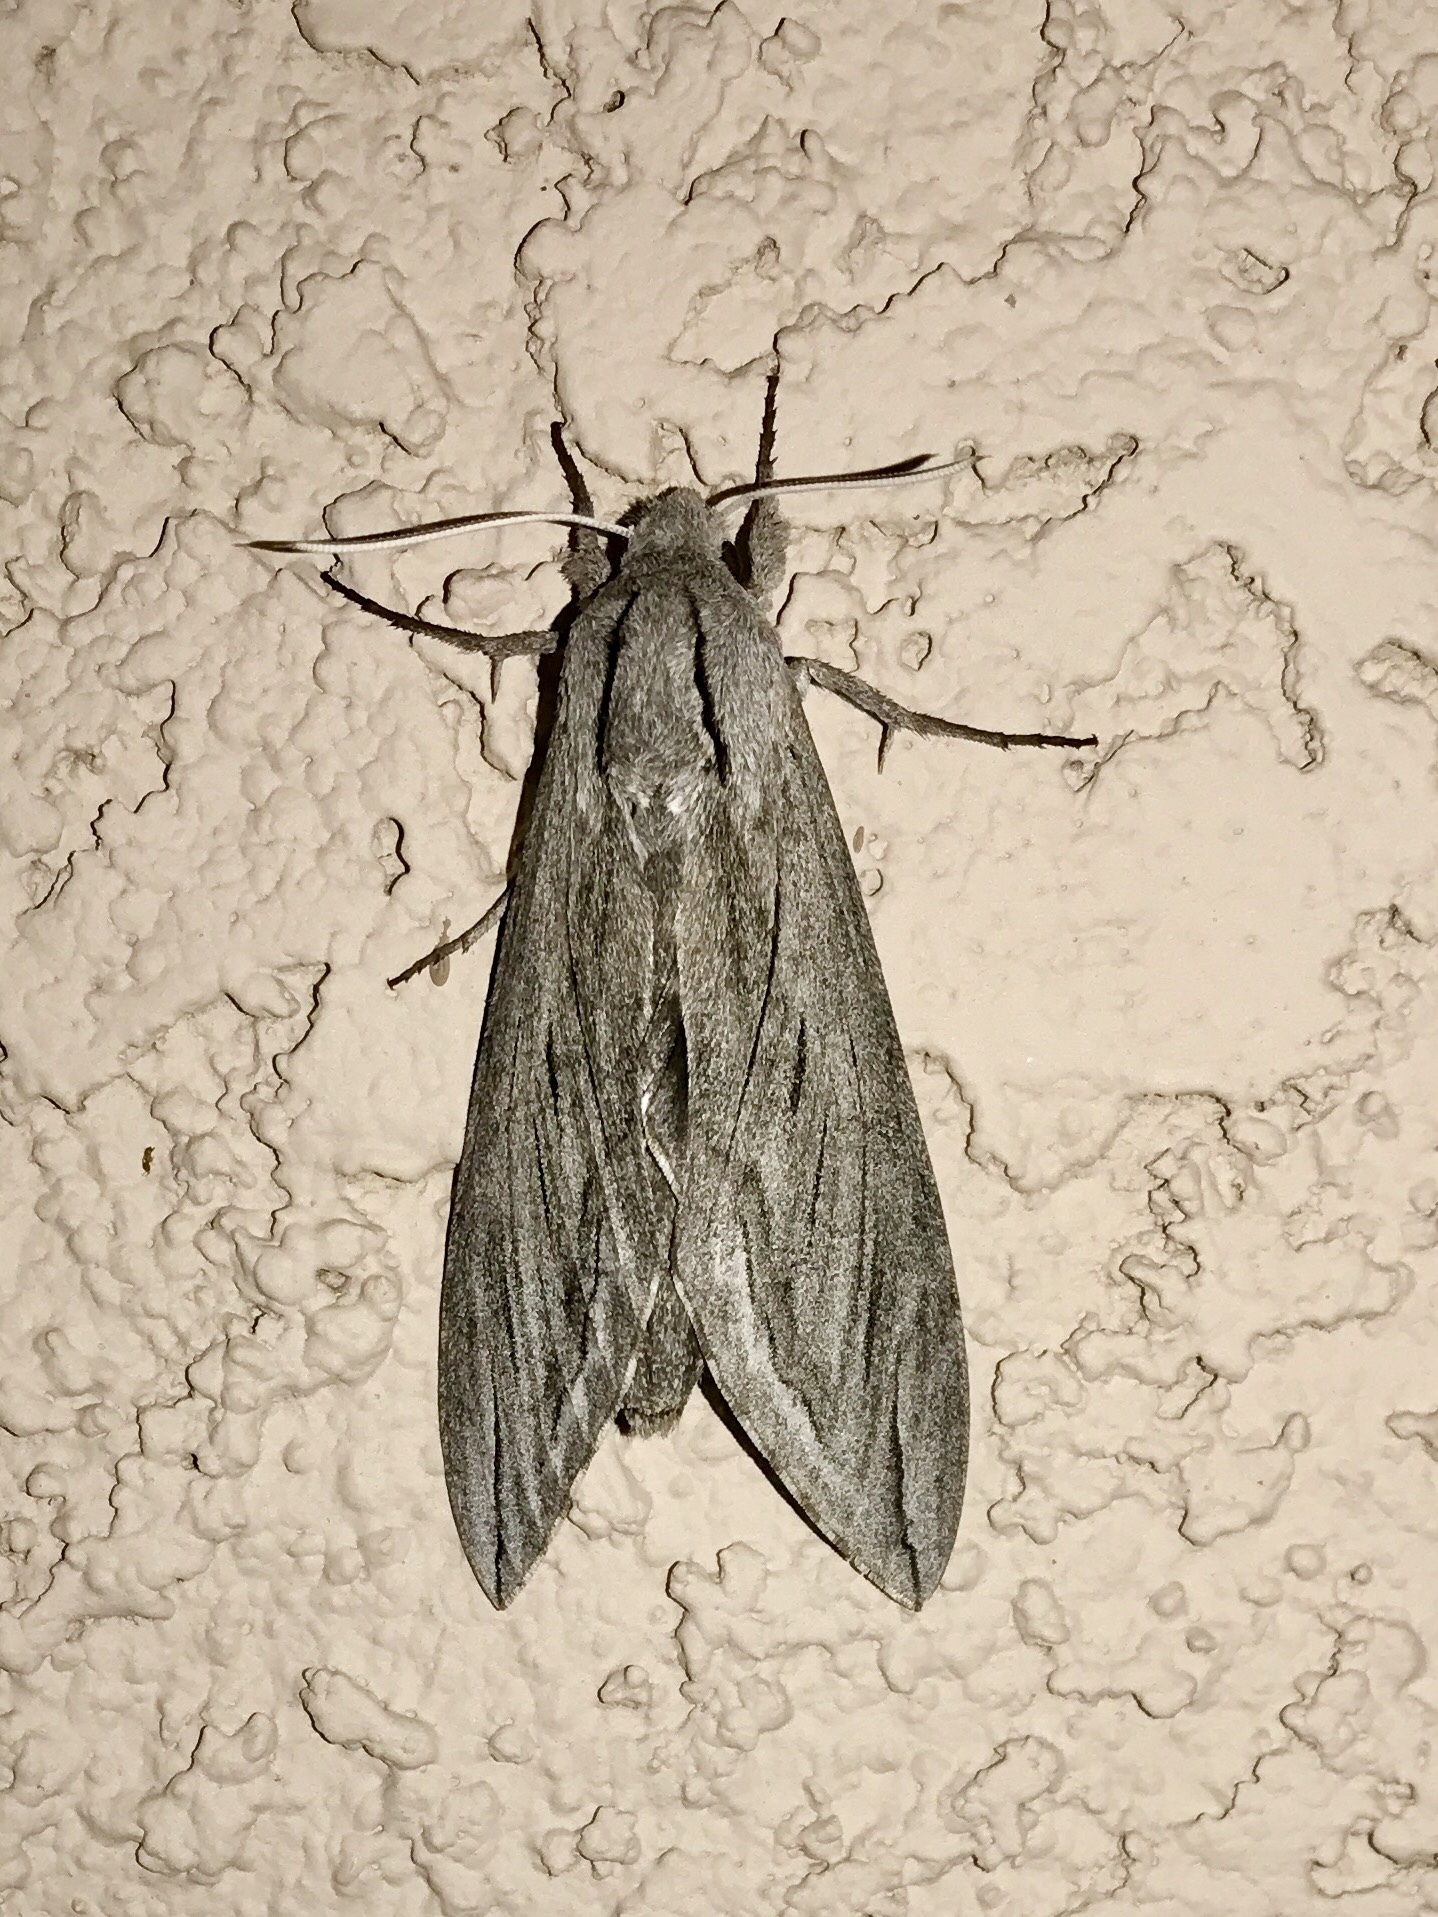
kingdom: Animalia
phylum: Arthropoda
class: Insecta
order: Lepidoptera
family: Sphingidae
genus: Sphinx
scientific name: Sphinx chersis
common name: Great ash sphinx
